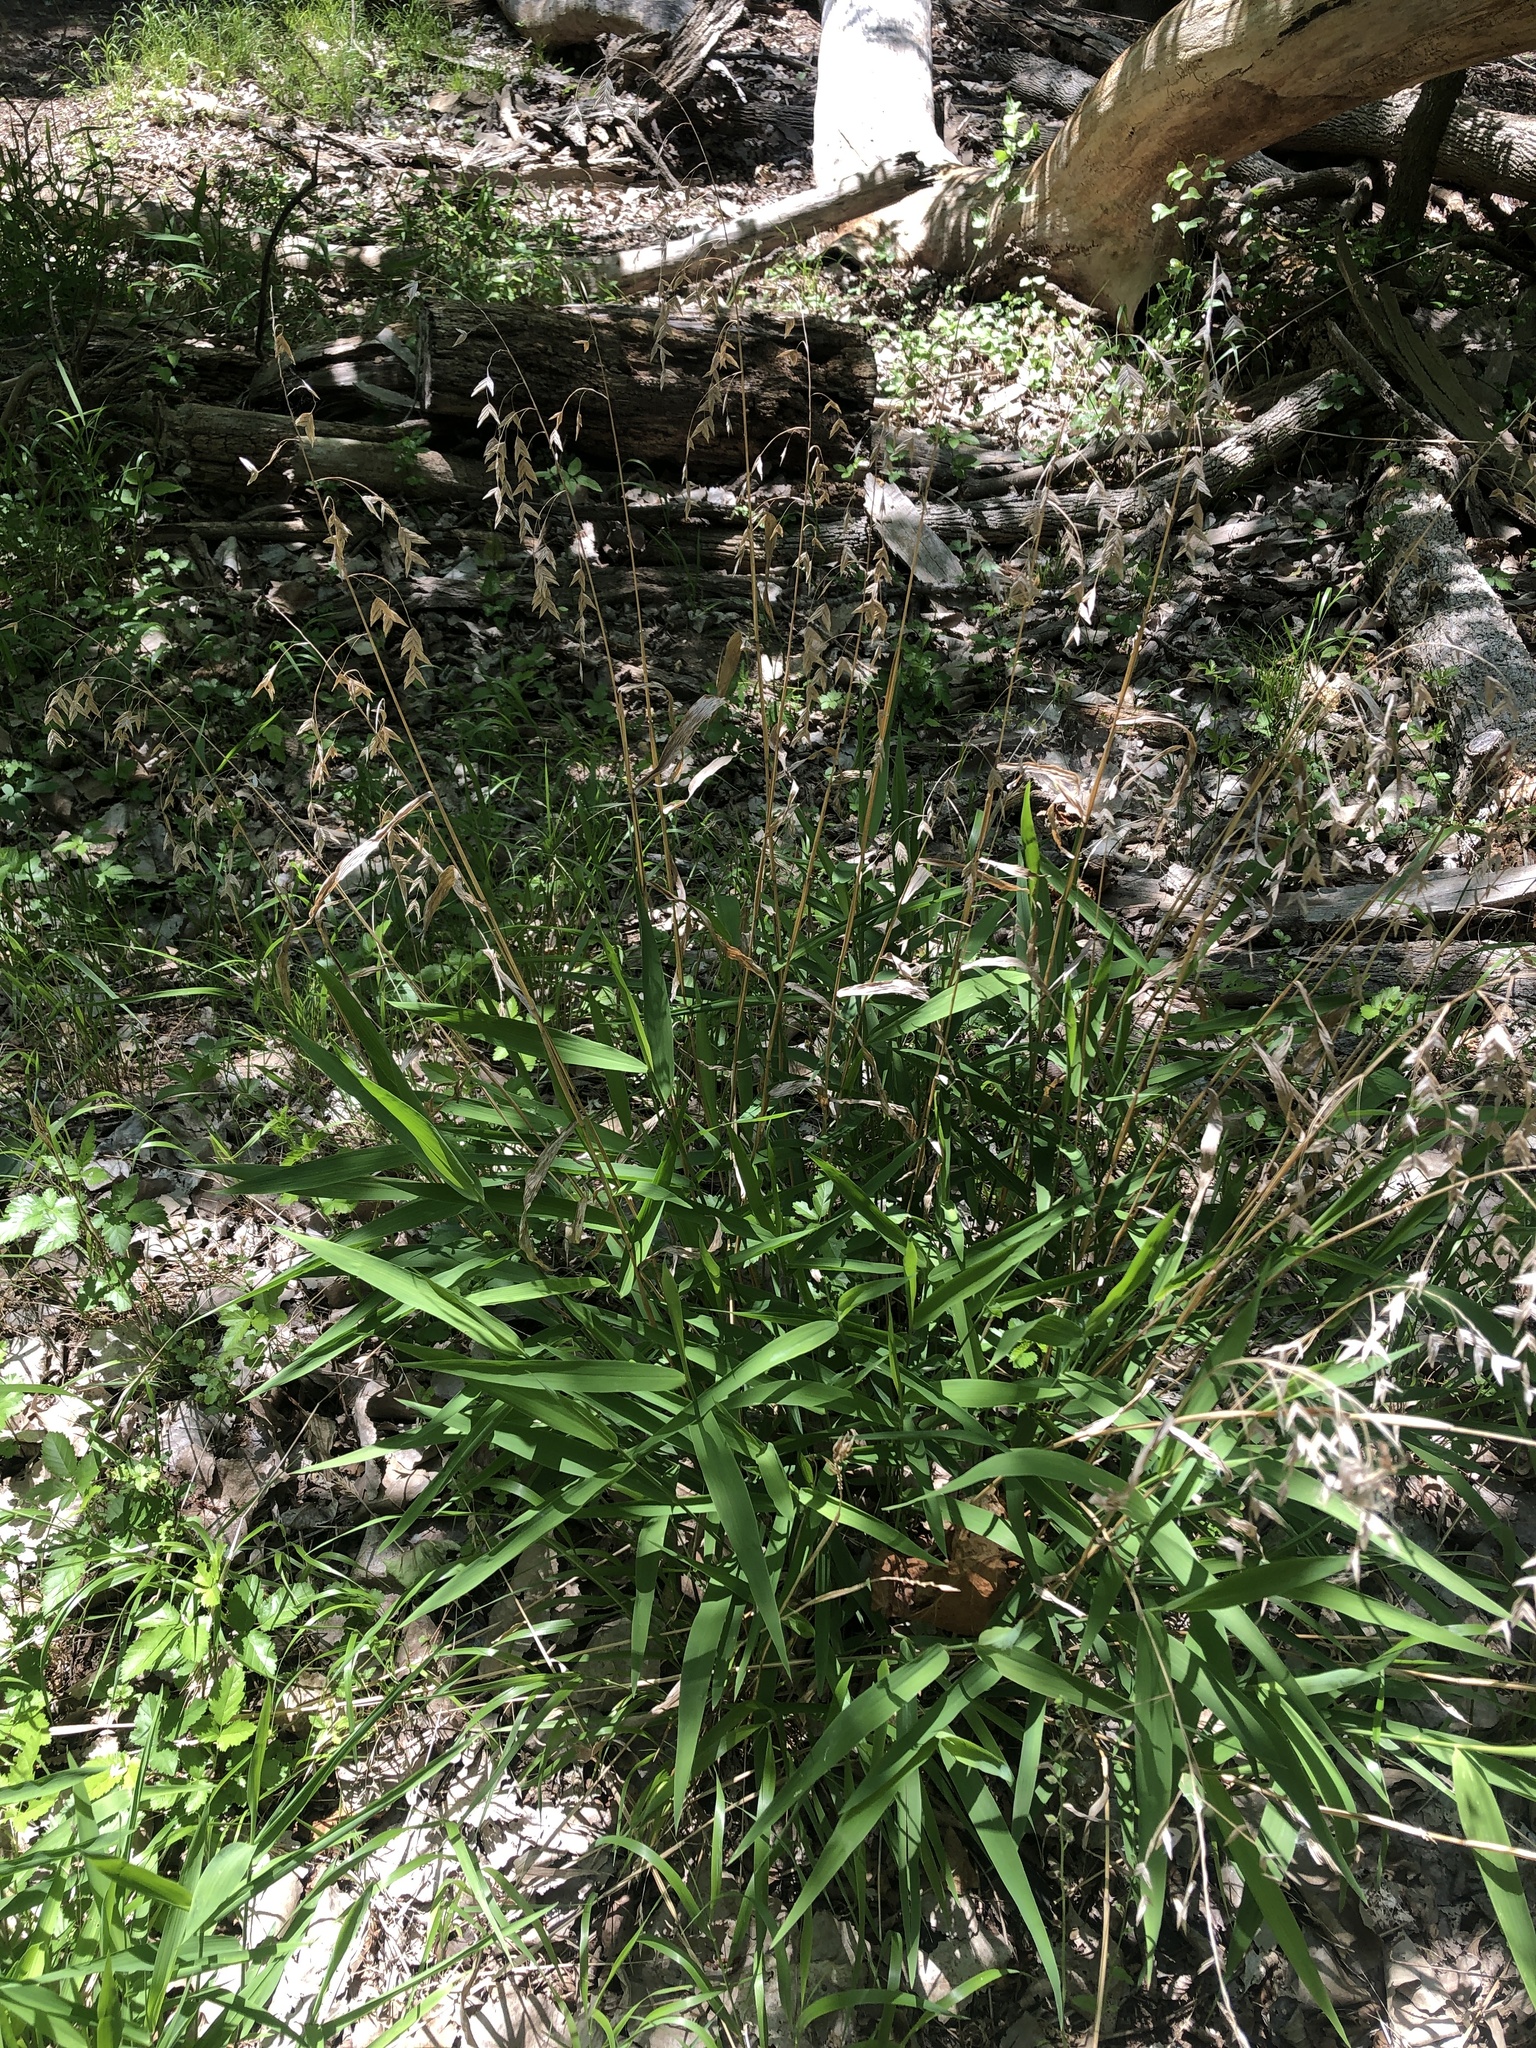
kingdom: Plantae
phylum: Tracheophyta
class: Liliopsida
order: Poales
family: Poaceae
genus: Chasmanthium
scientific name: Chasmanthium latifolium
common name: Broad-leaved chasmanthium
